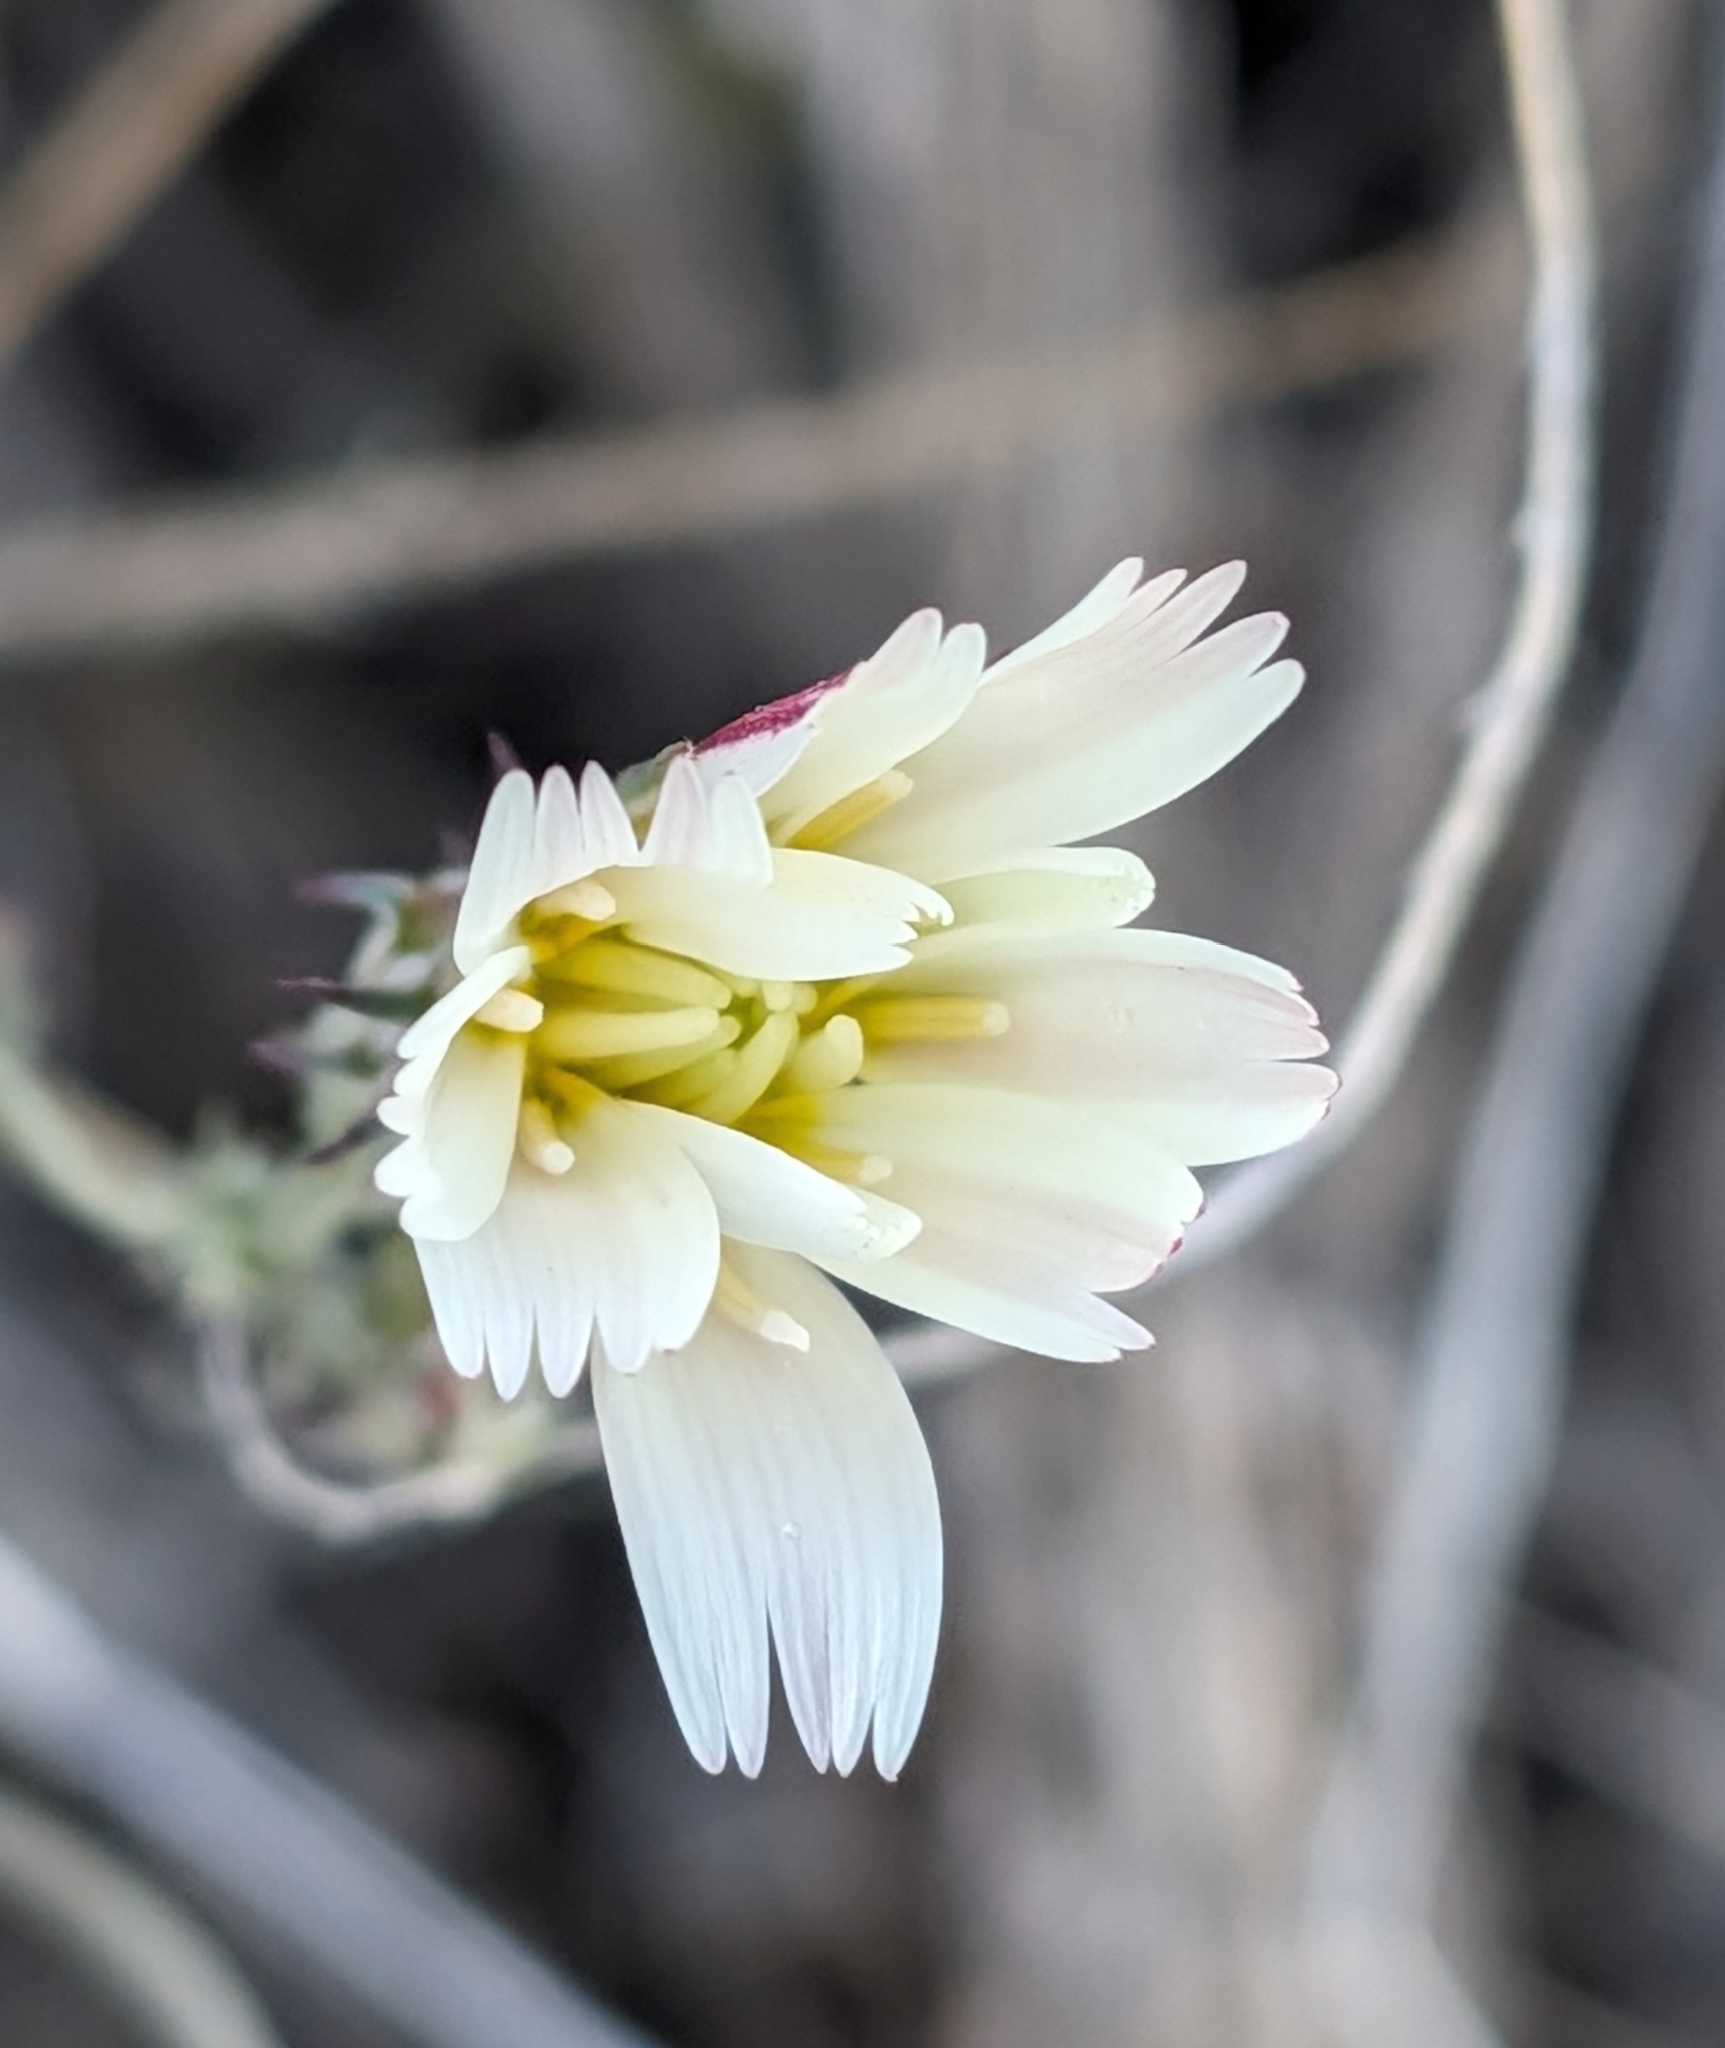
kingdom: Plantae
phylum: Tracheophyta
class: Magnoliopsida
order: Asterales
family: Asteraceae
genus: Rafinesquia
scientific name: Rafinesquia neomexicana
